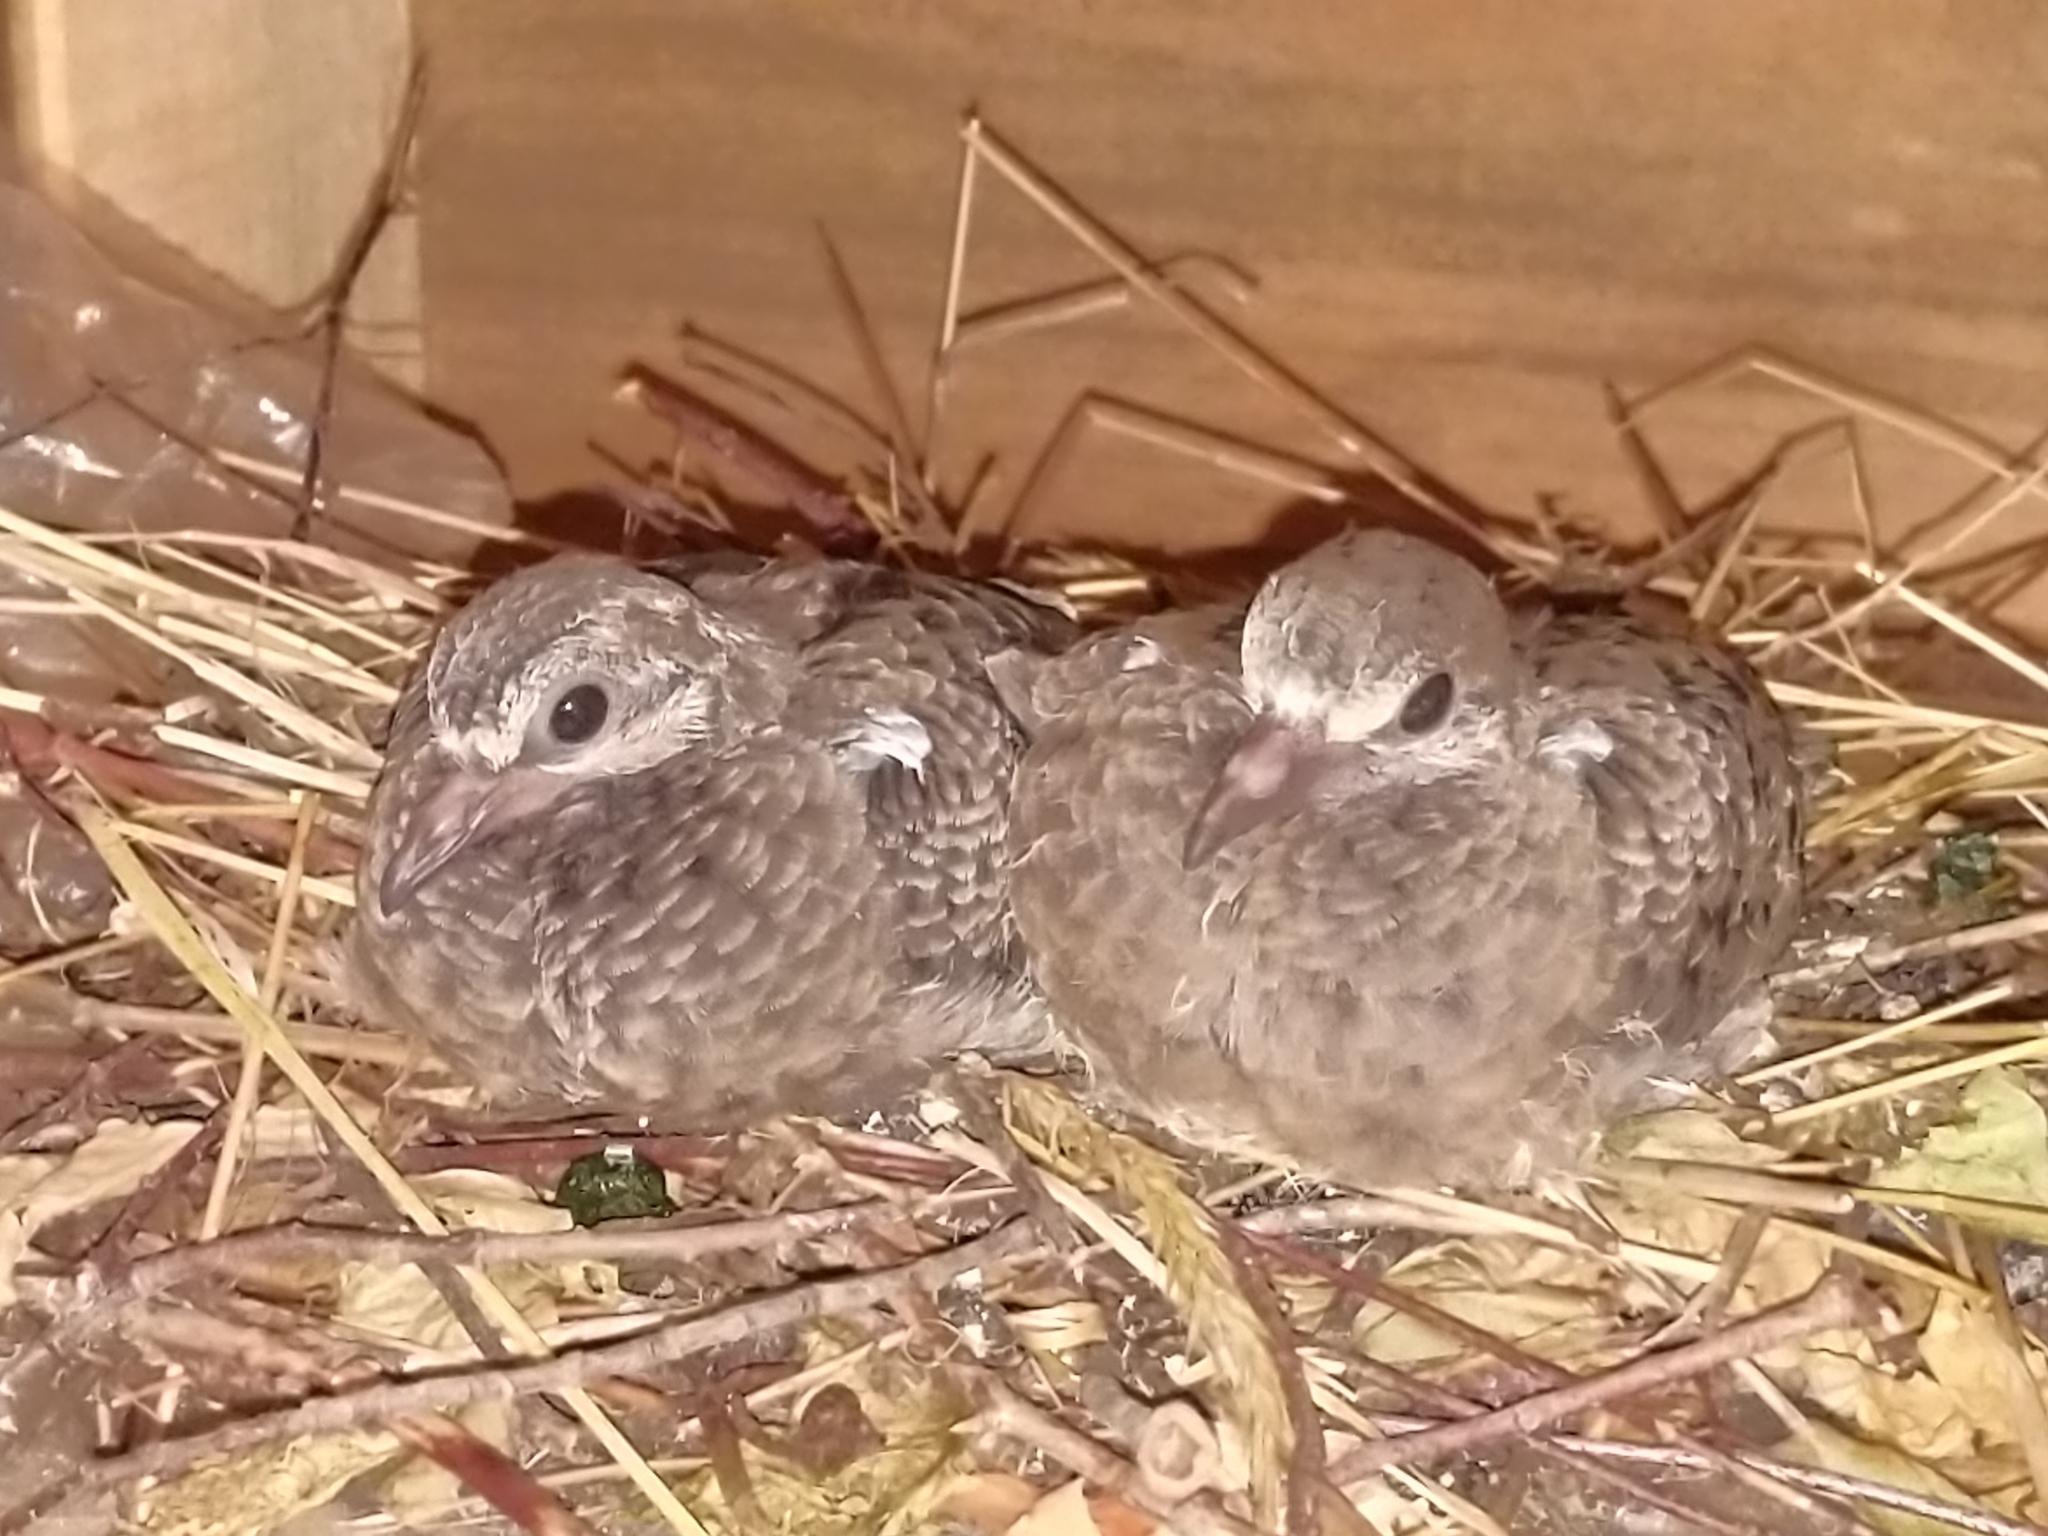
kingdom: Animalia
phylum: Chordata
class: Aves
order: Columbiformes
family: Columbidae
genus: Zenaida
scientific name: Zenaida macroura
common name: Mourning dove
